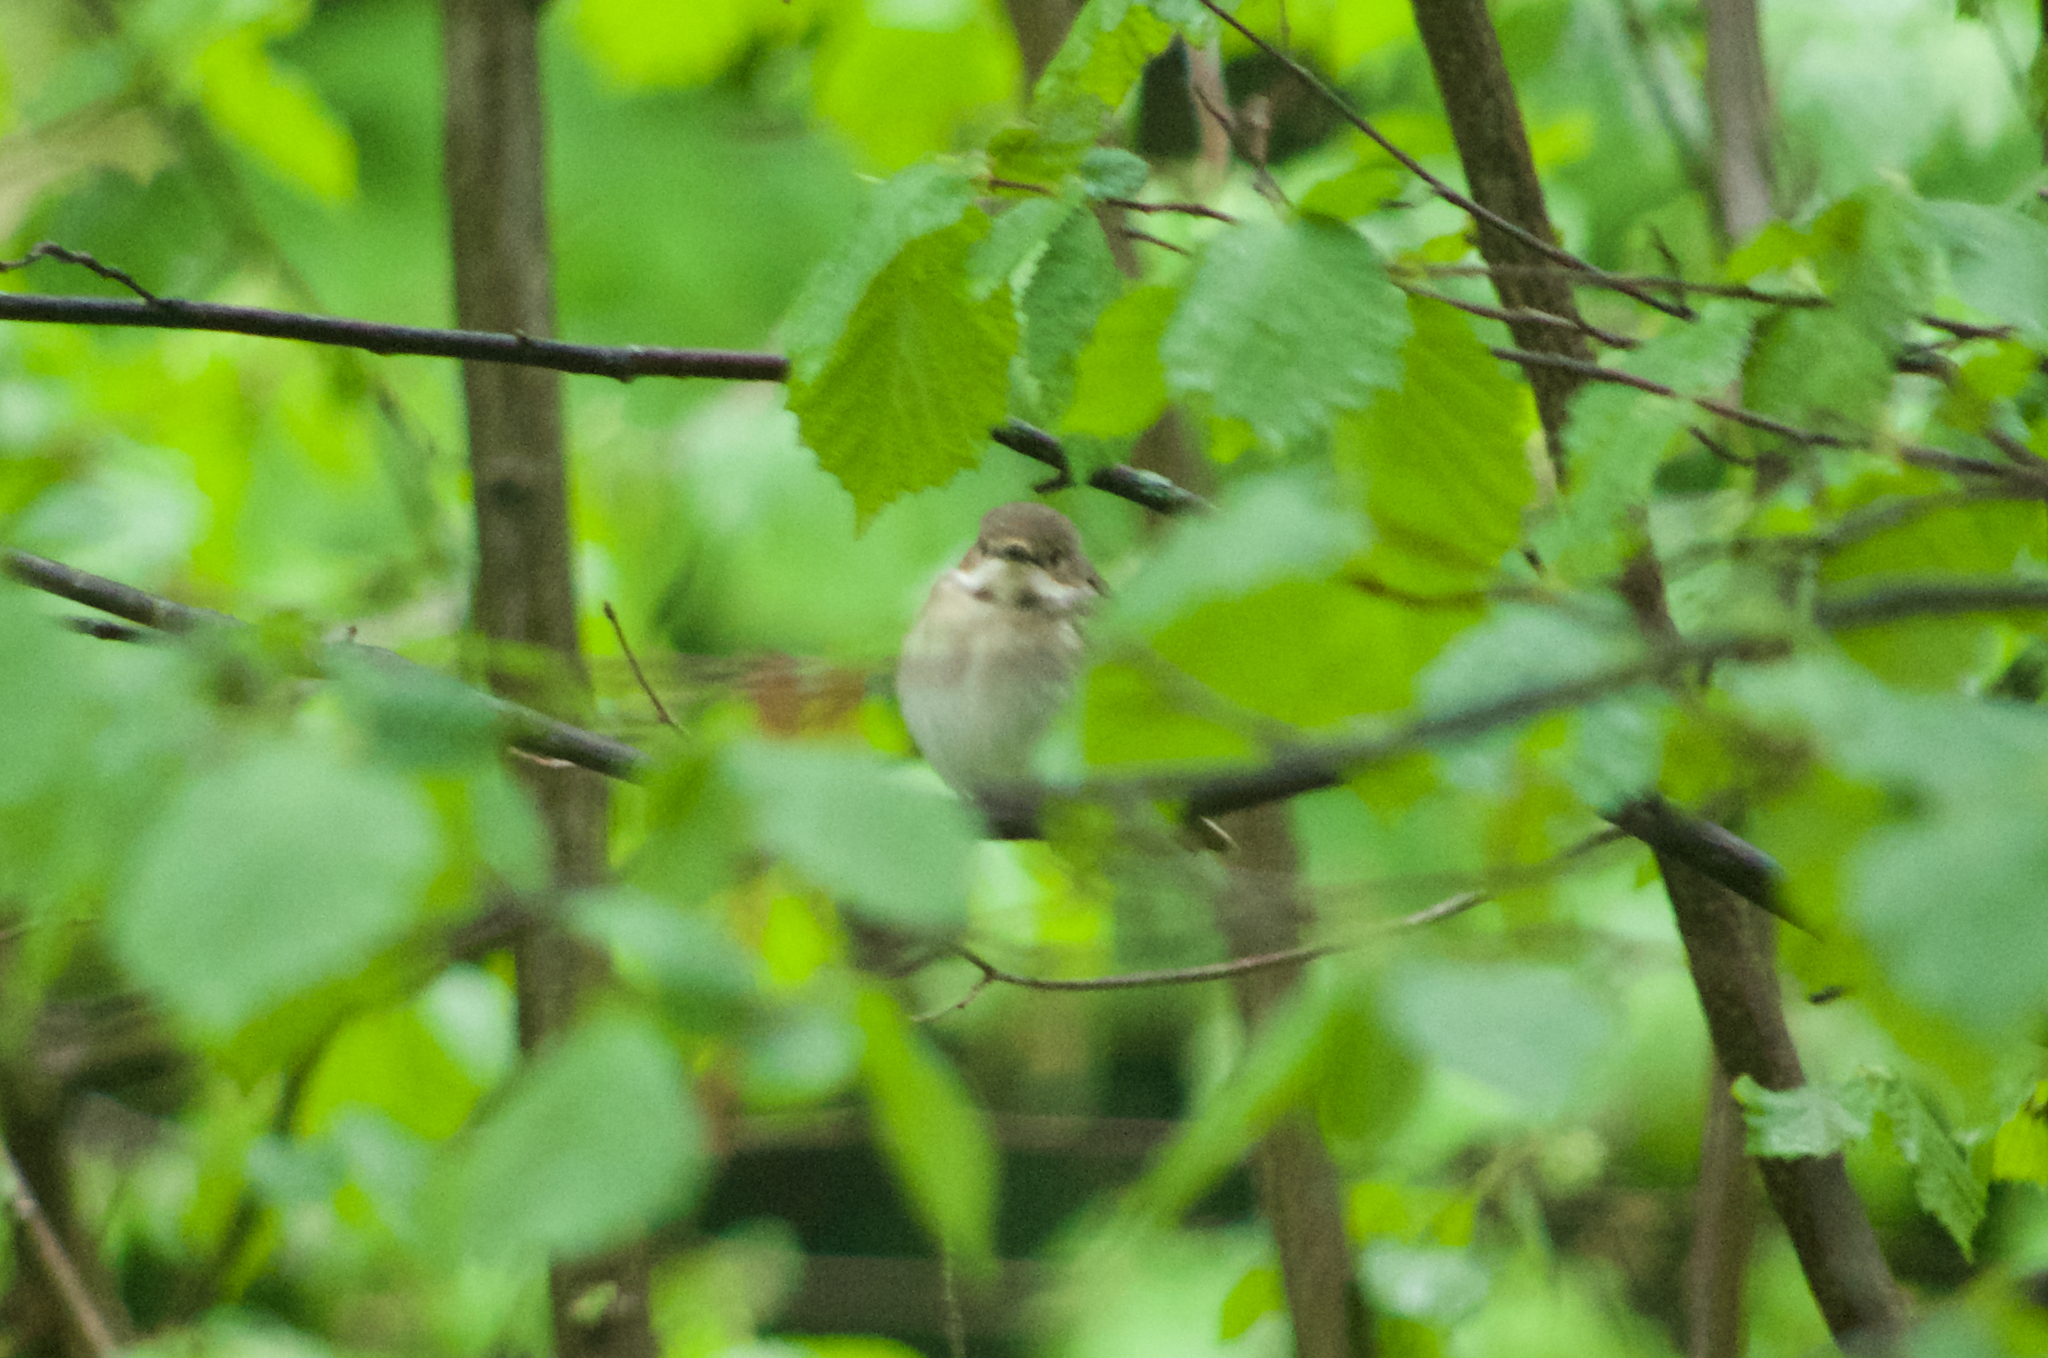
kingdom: Animalia
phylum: Chordata
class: Aves
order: Passeriformes
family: Muscicapidae
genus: Ficedula
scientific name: Ficedula hypoleuca
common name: European pied flycatcher
